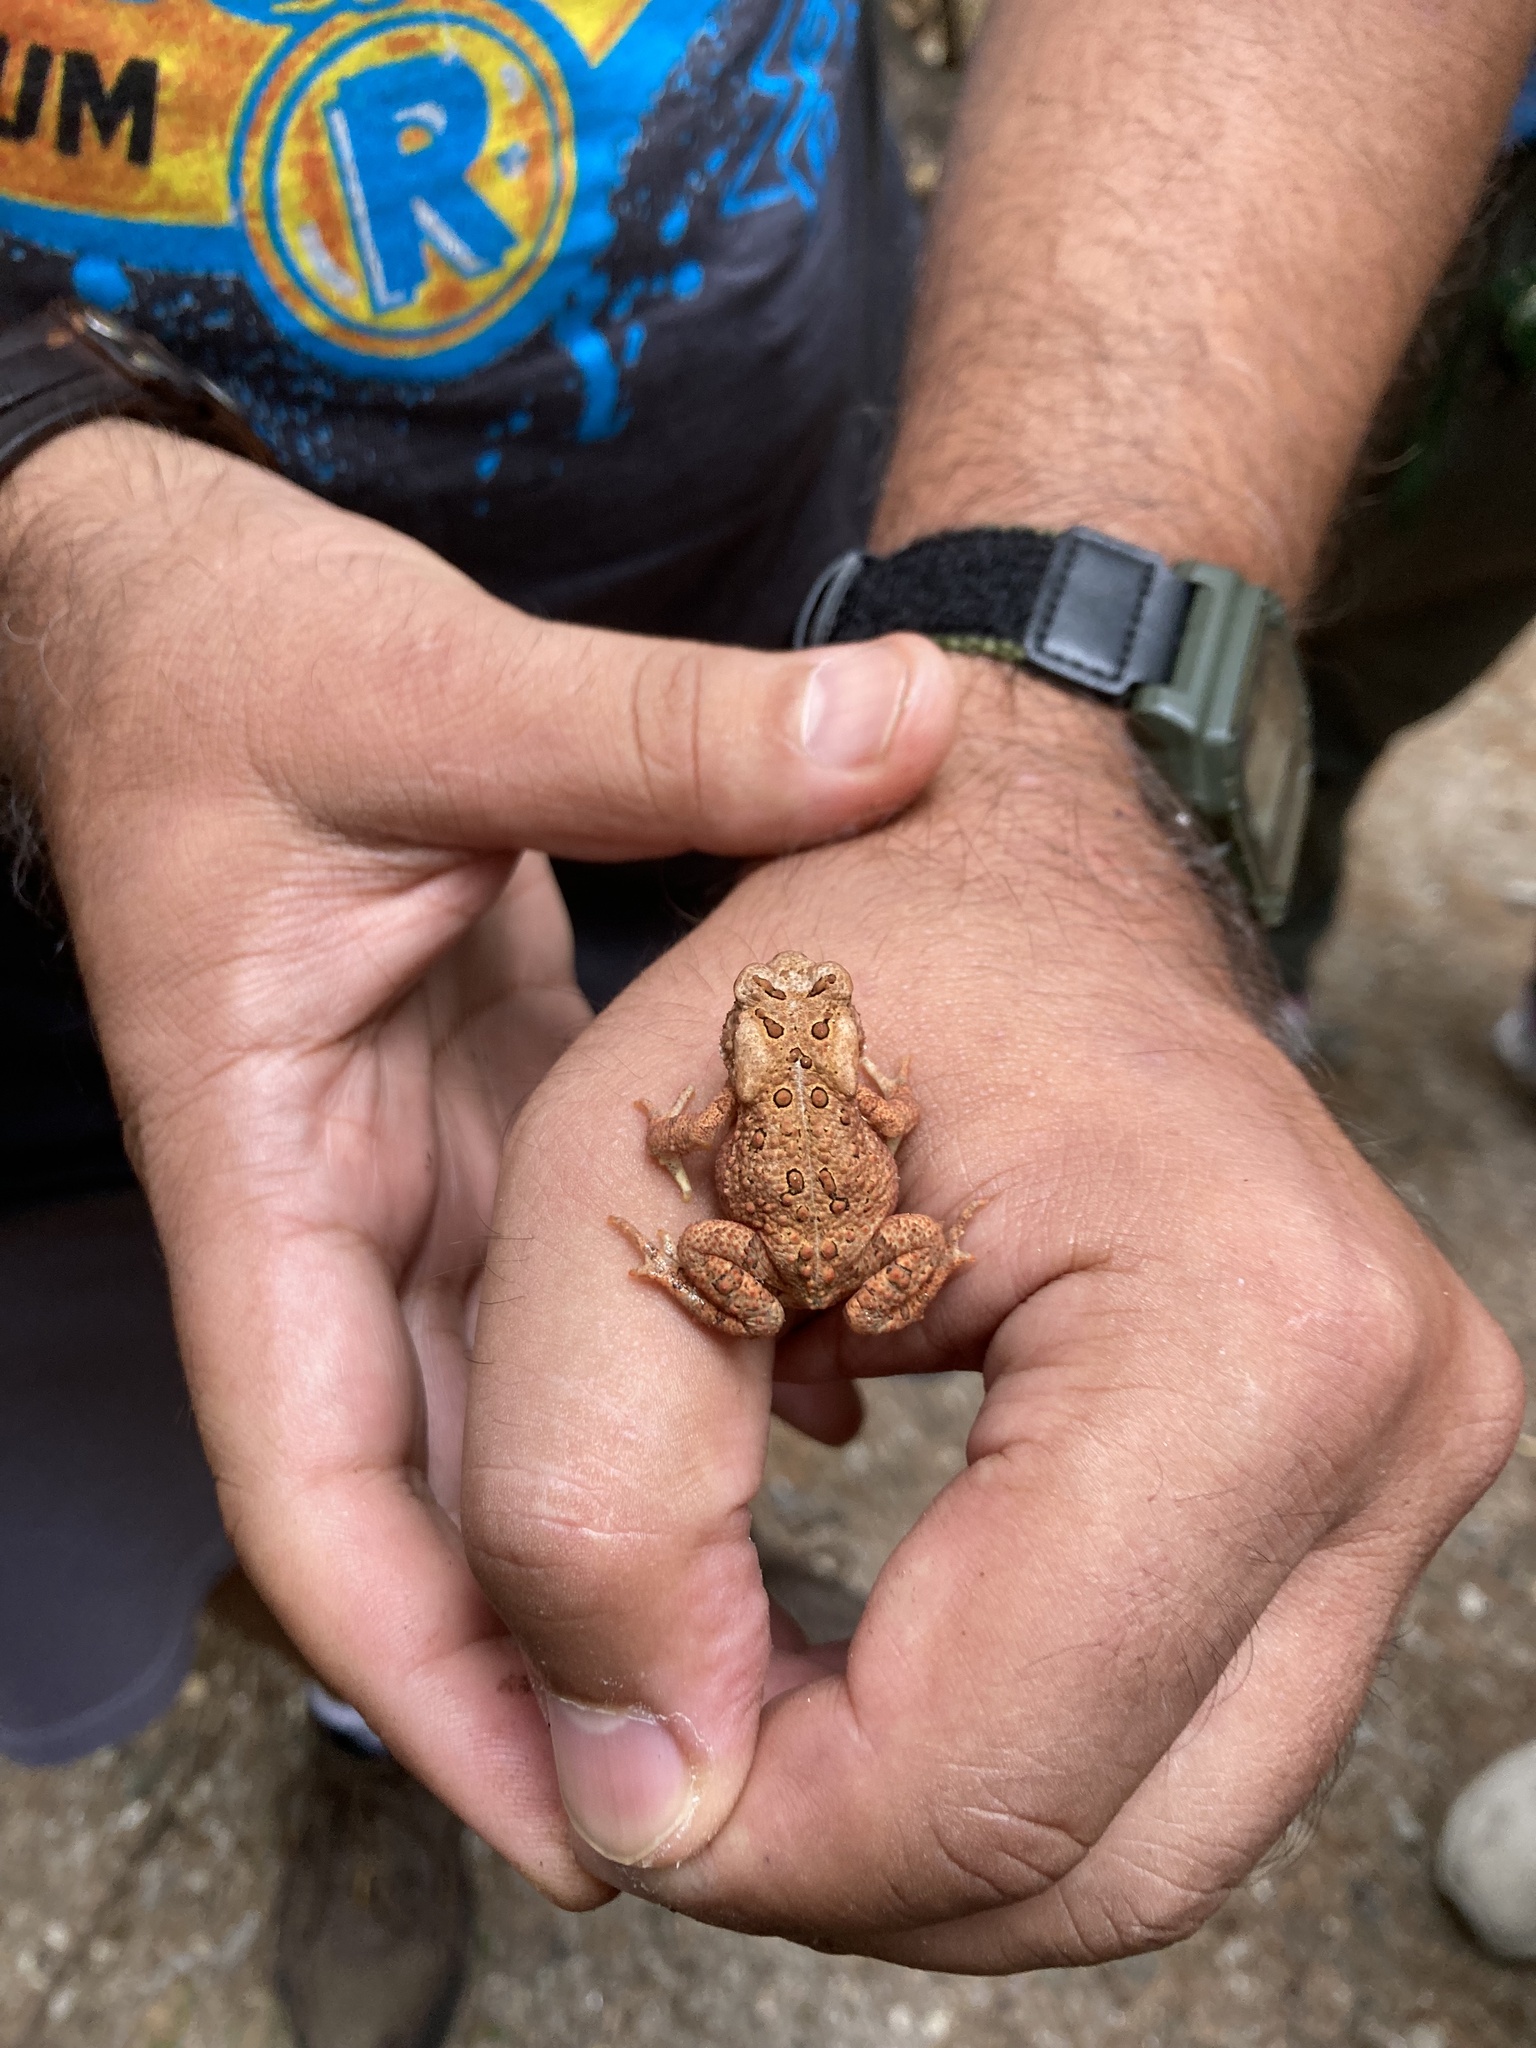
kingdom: Animalia
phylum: Chordata
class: Amphibia
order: Anura
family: Bufonidae
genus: Anaxyrus
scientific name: Anaxyrus americanus
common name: American toad
